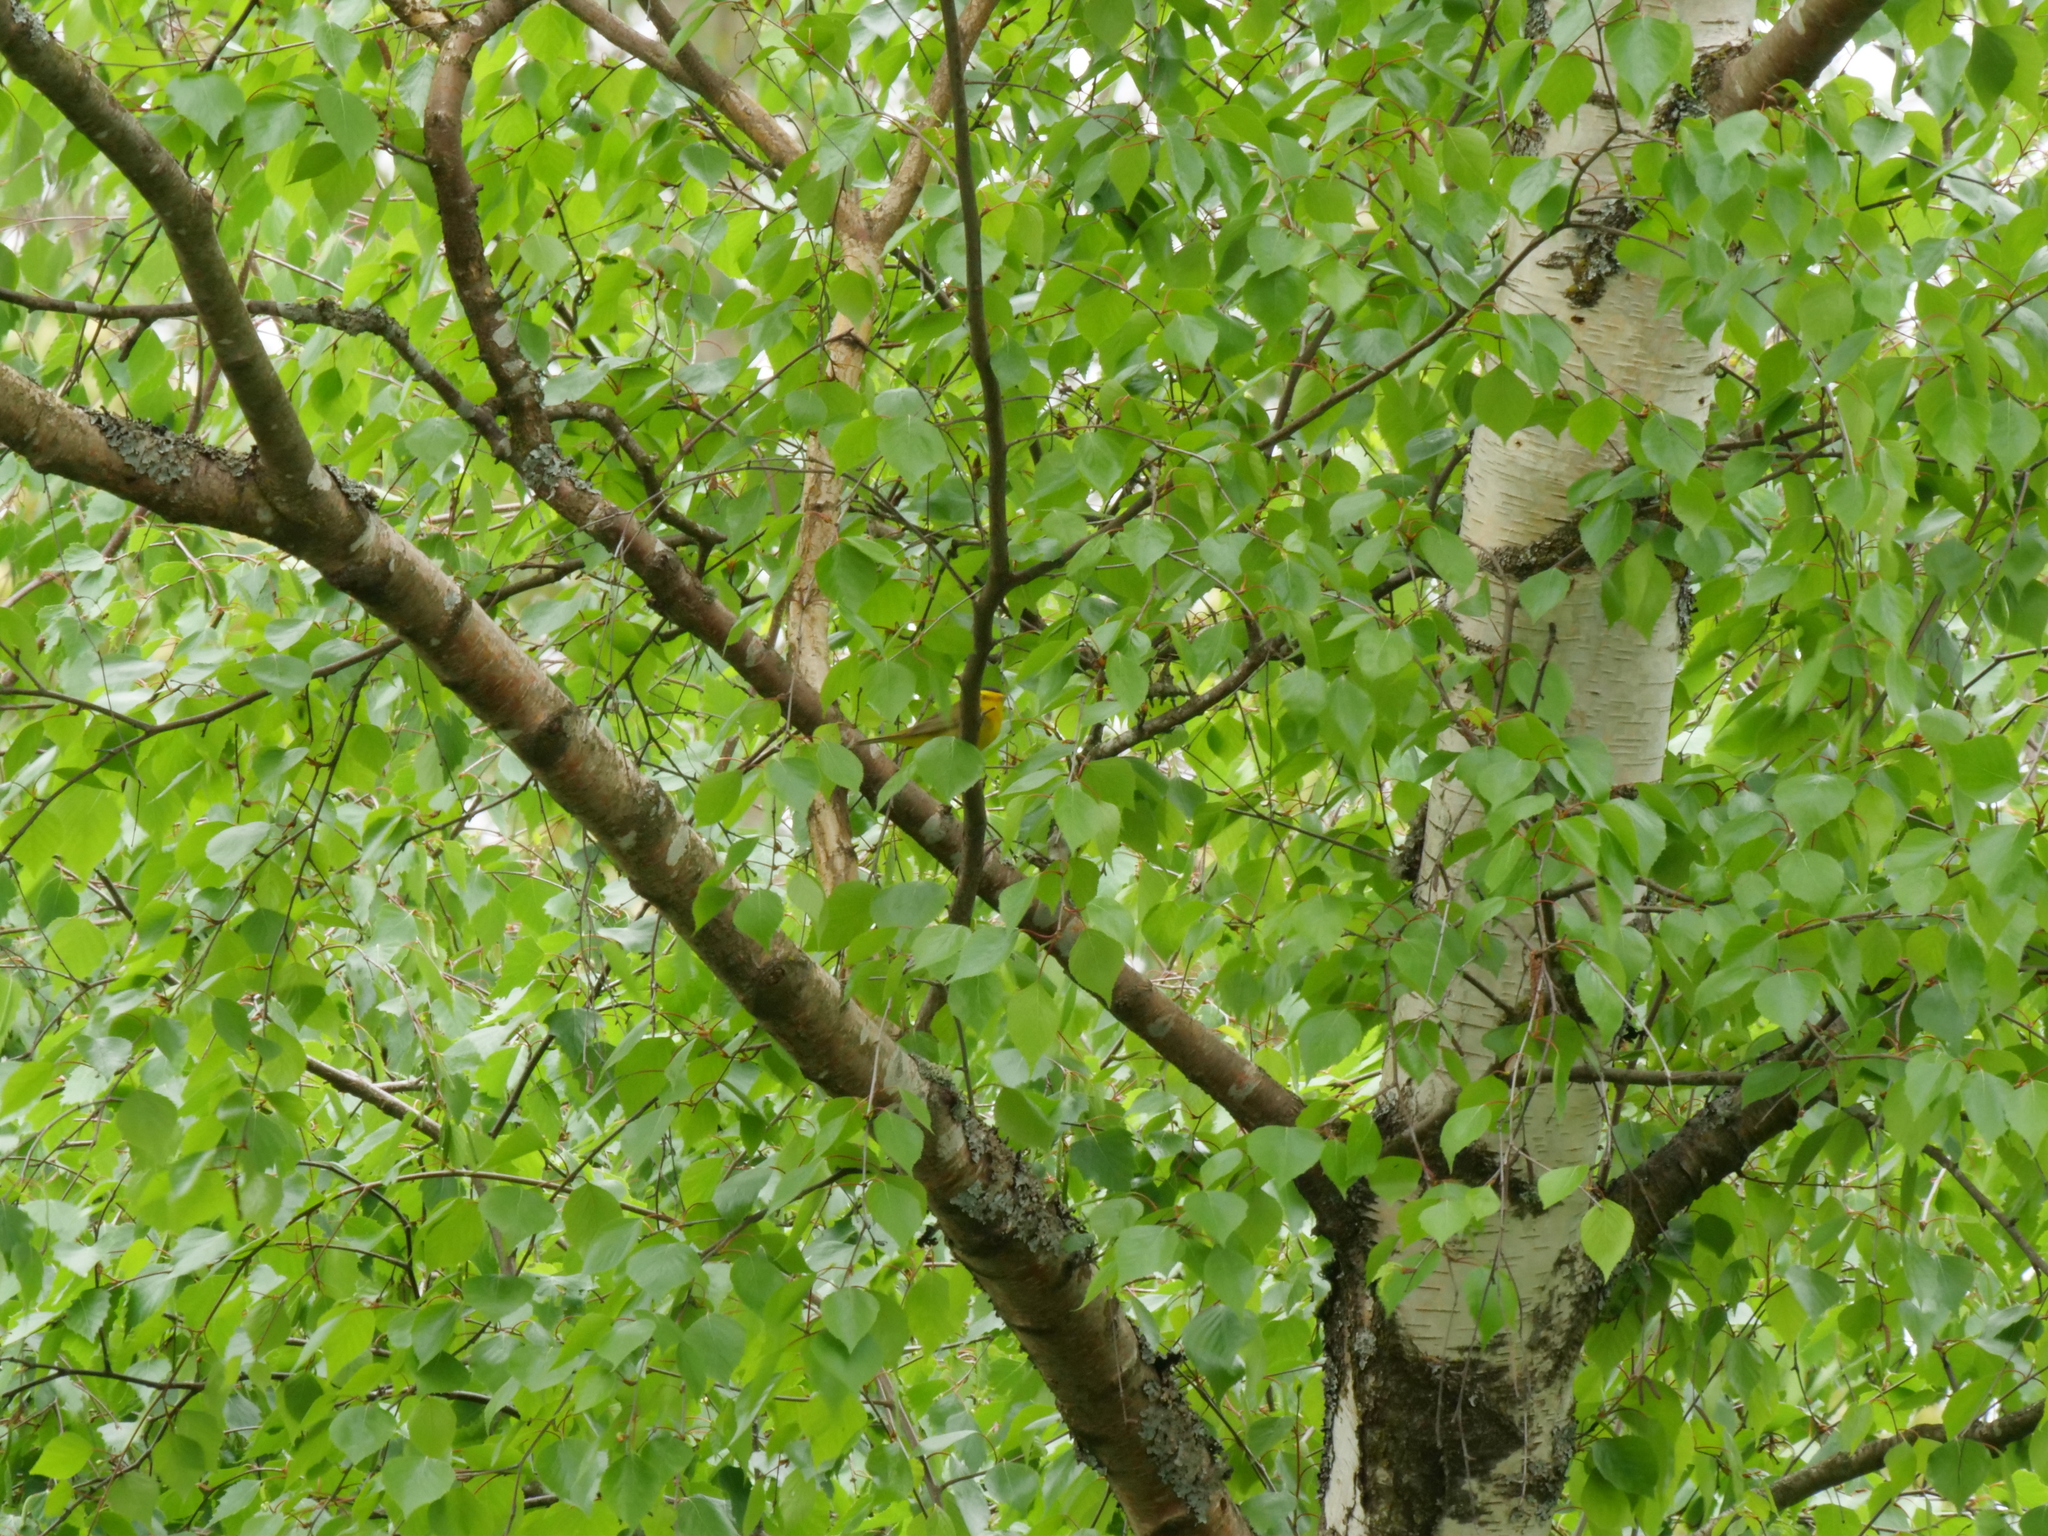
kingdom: Animalia
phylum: Chordata
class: Aves
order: Passeriformes
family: Parulidae
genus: Cardellina
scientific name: Cardellina pusilla
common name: Wilson's warbler
